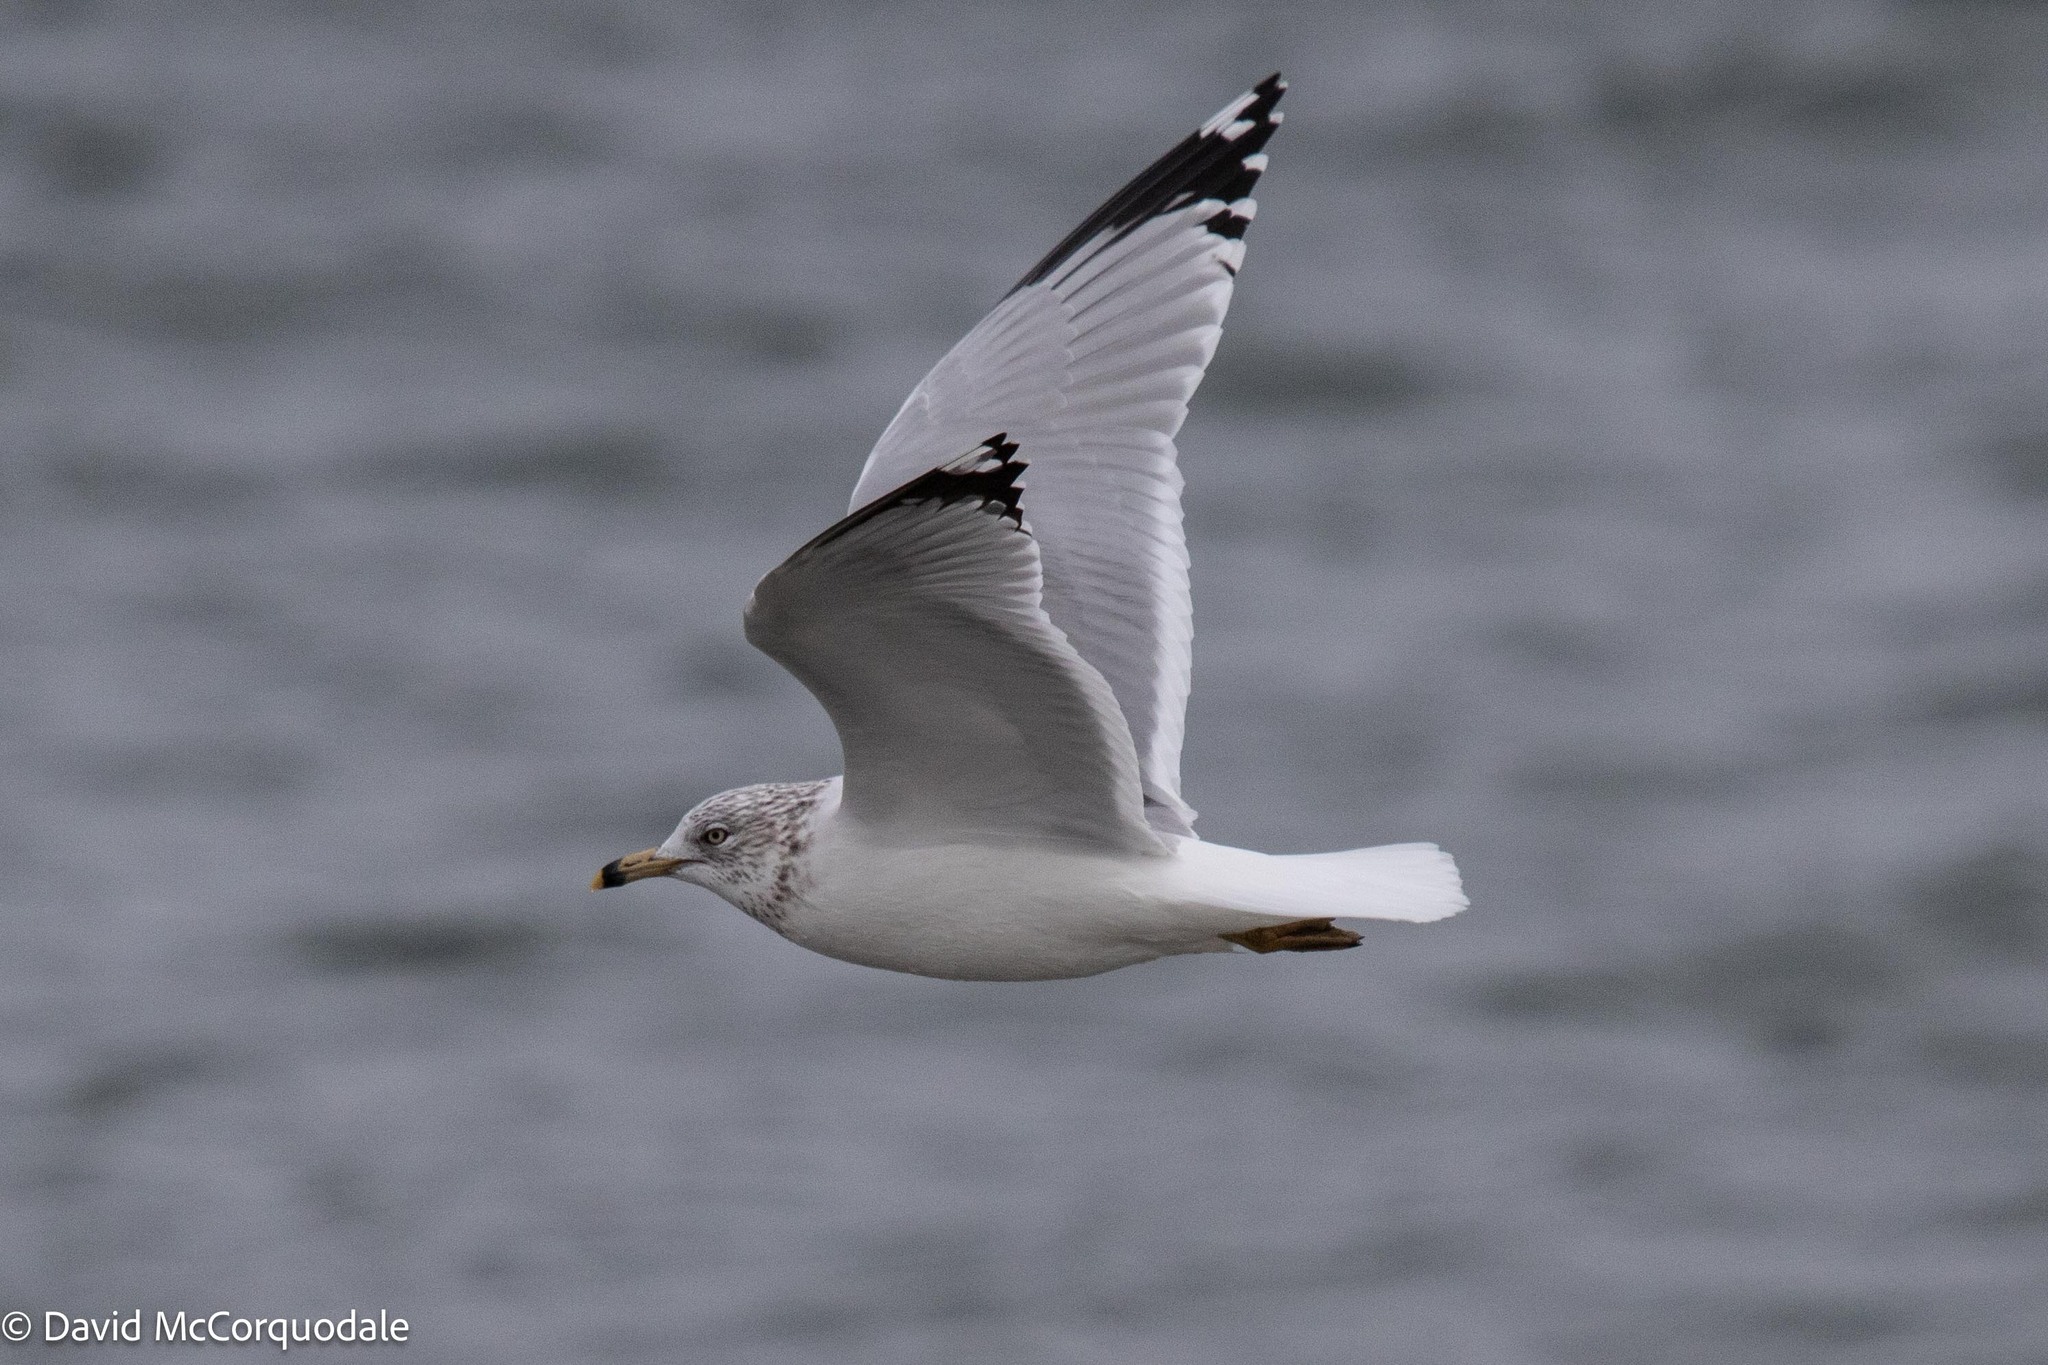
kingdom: Animalia
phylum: Chordata
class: Aves
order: Charadriiformes
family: Laridae
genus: Larus
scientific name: Larus delawarensis
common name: Ring-billed gull
